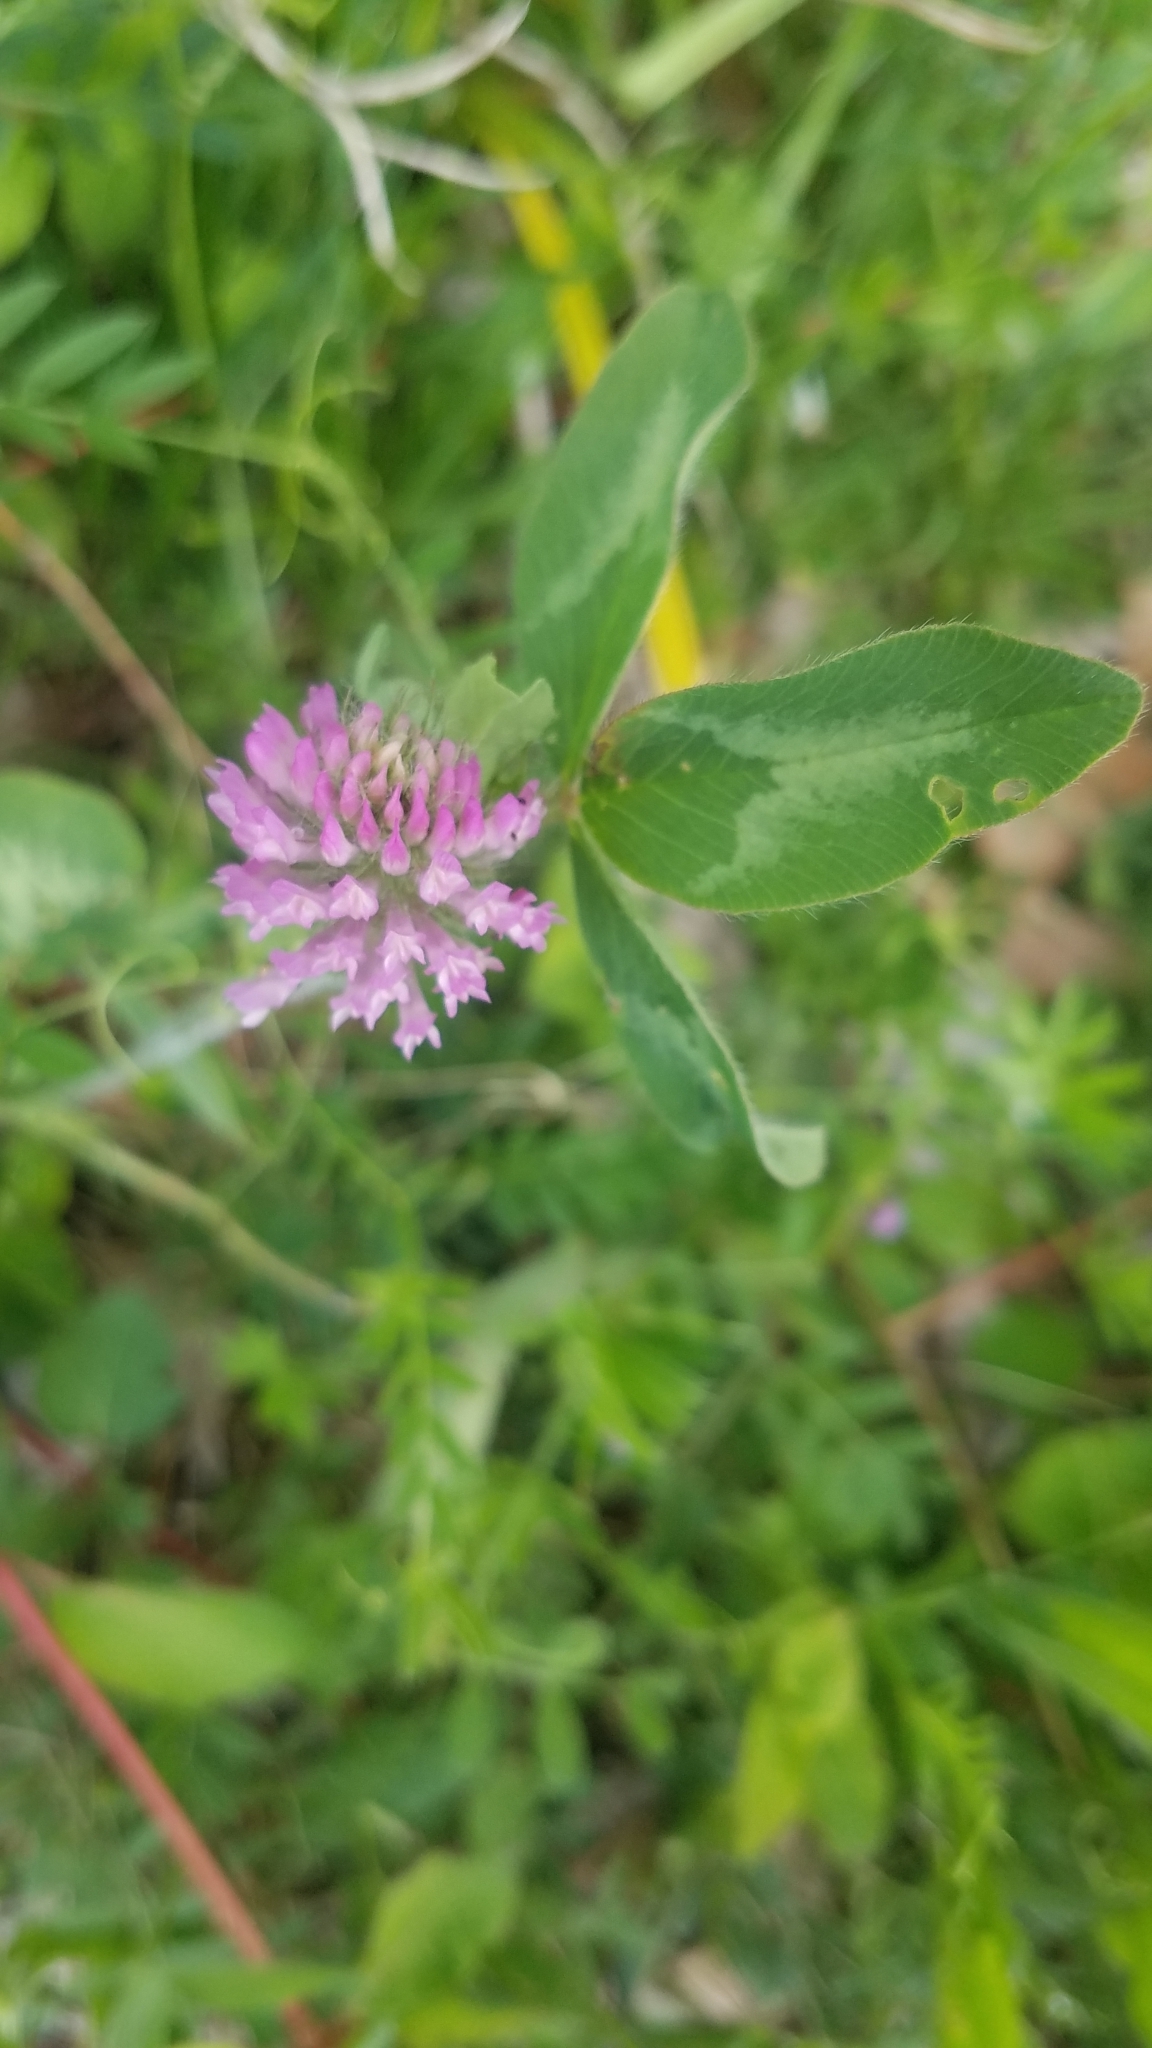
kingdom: Plantae
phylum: Tracheophyta
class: Magnoliopsida
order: Fabales
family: Fabaceae
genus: Trifolium
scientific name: Trifolium pratense
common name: Red clover
